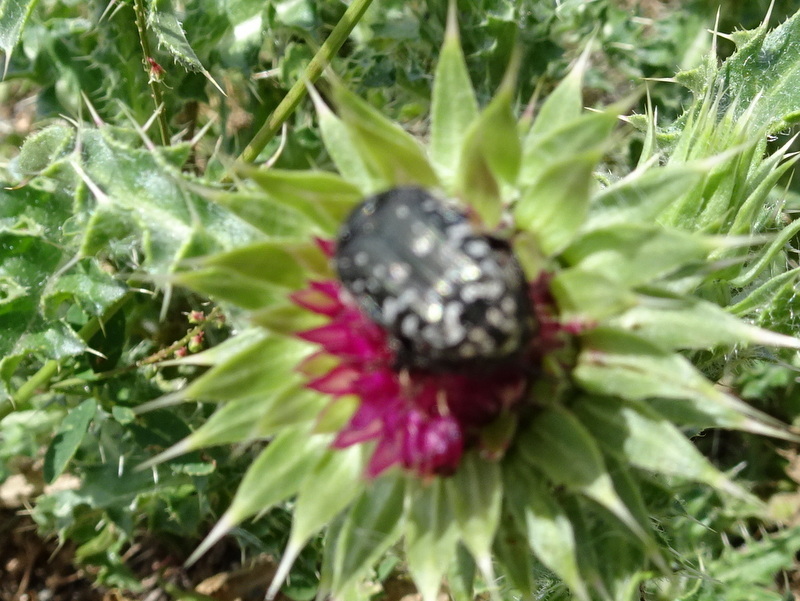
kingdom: Animalia
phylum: Arthropoda
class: Insecta
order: Coleoptera
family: Scarabaeidae
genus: Oxythyrea
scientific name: Oxythyrea funesta
